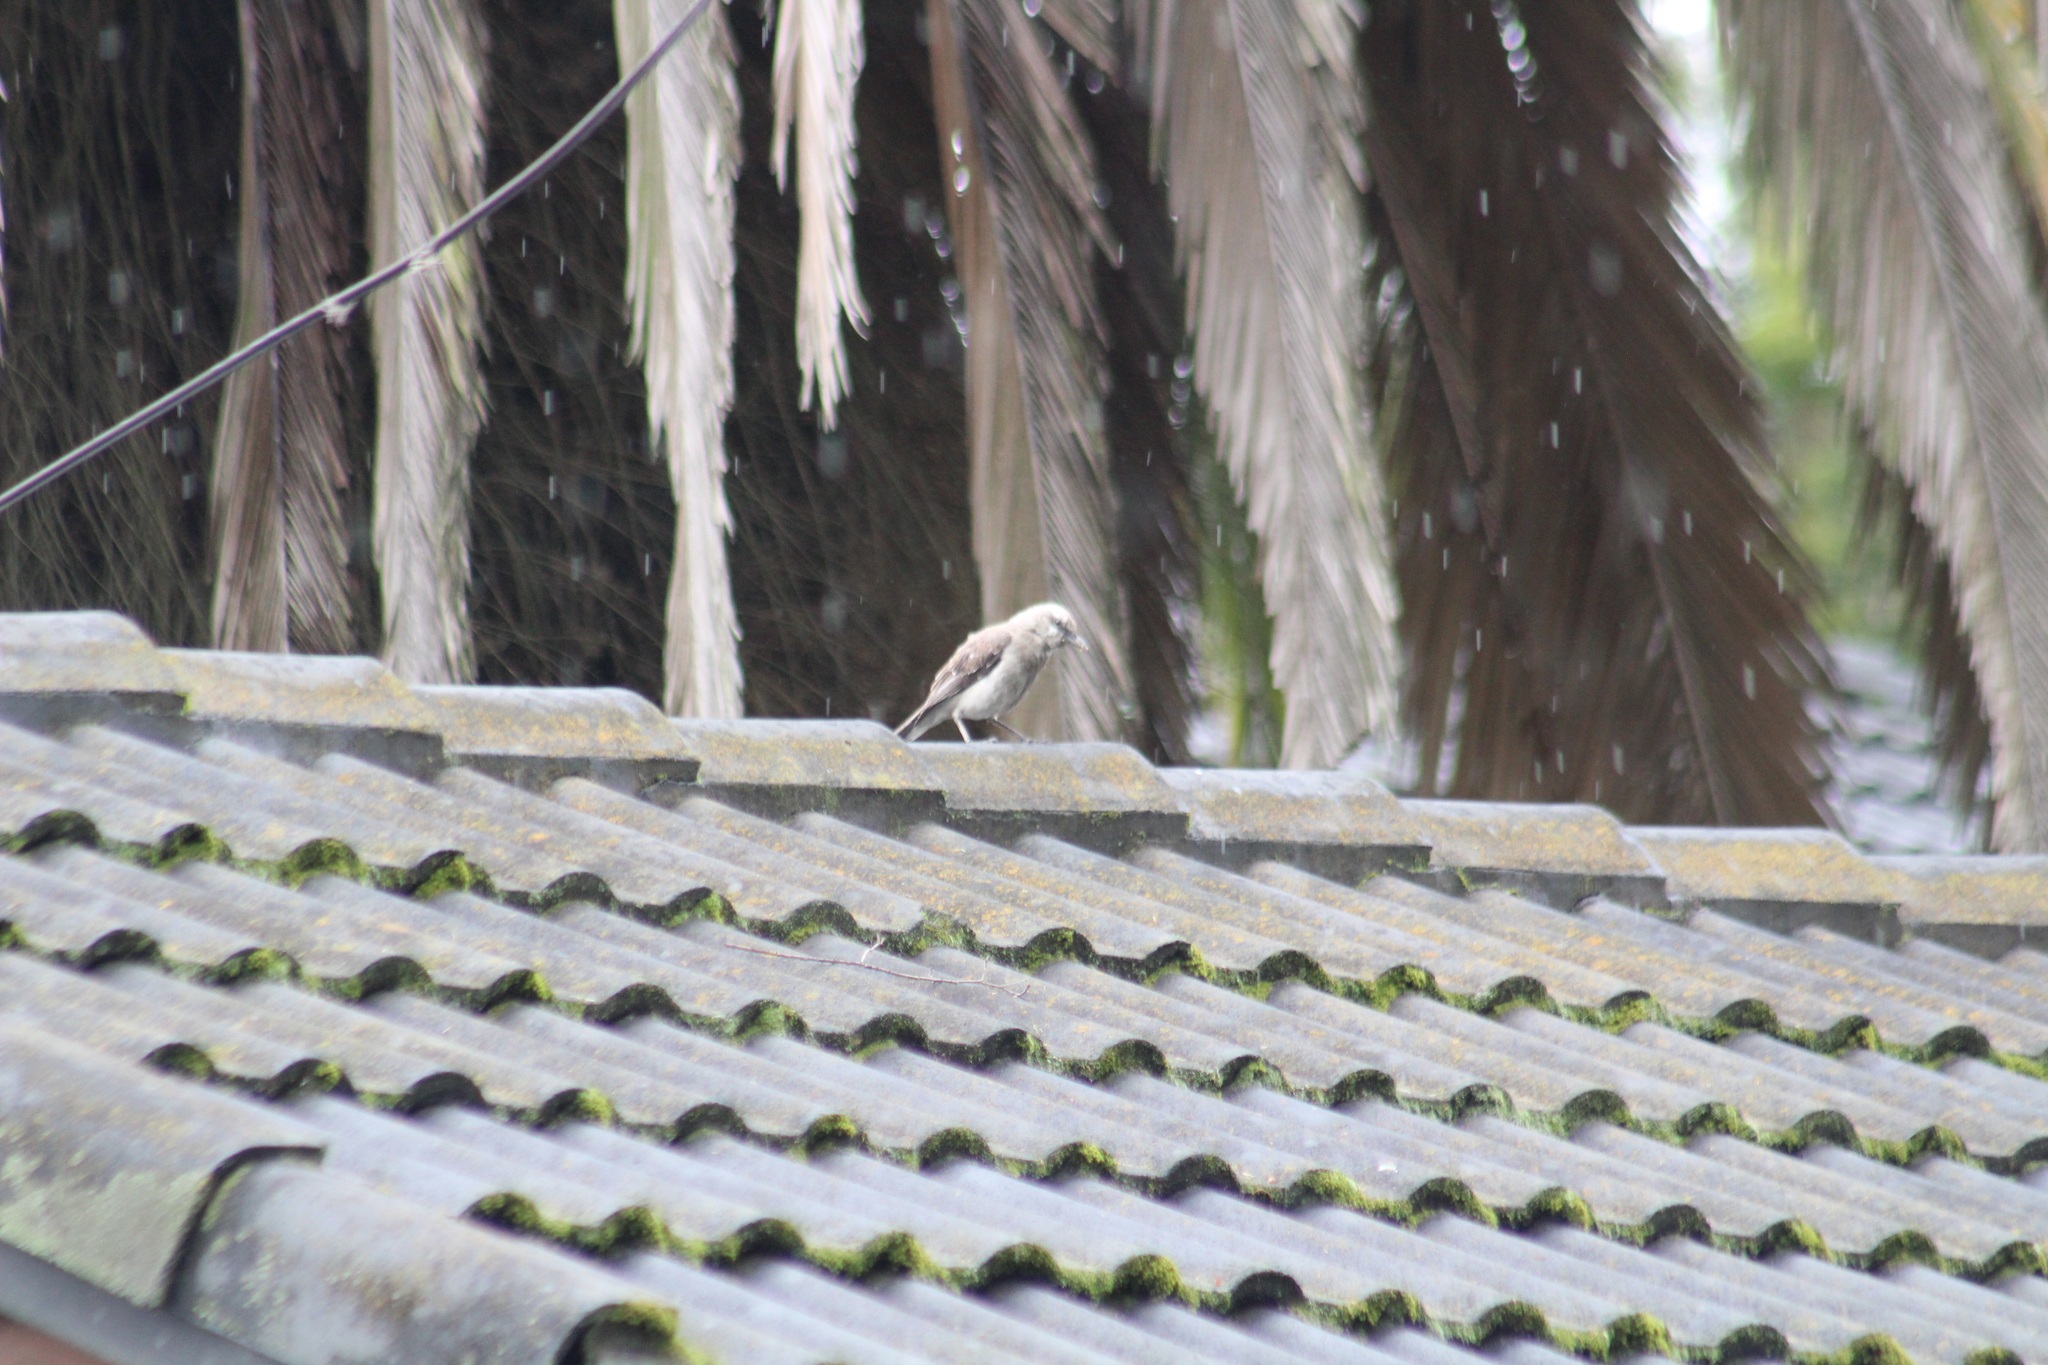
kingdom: Animalia
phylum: Chordata
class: Aves
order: Passeriformes
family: Mimidae
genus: Mimus
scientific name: Mimus gilvus
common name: Tropical mockingbird
